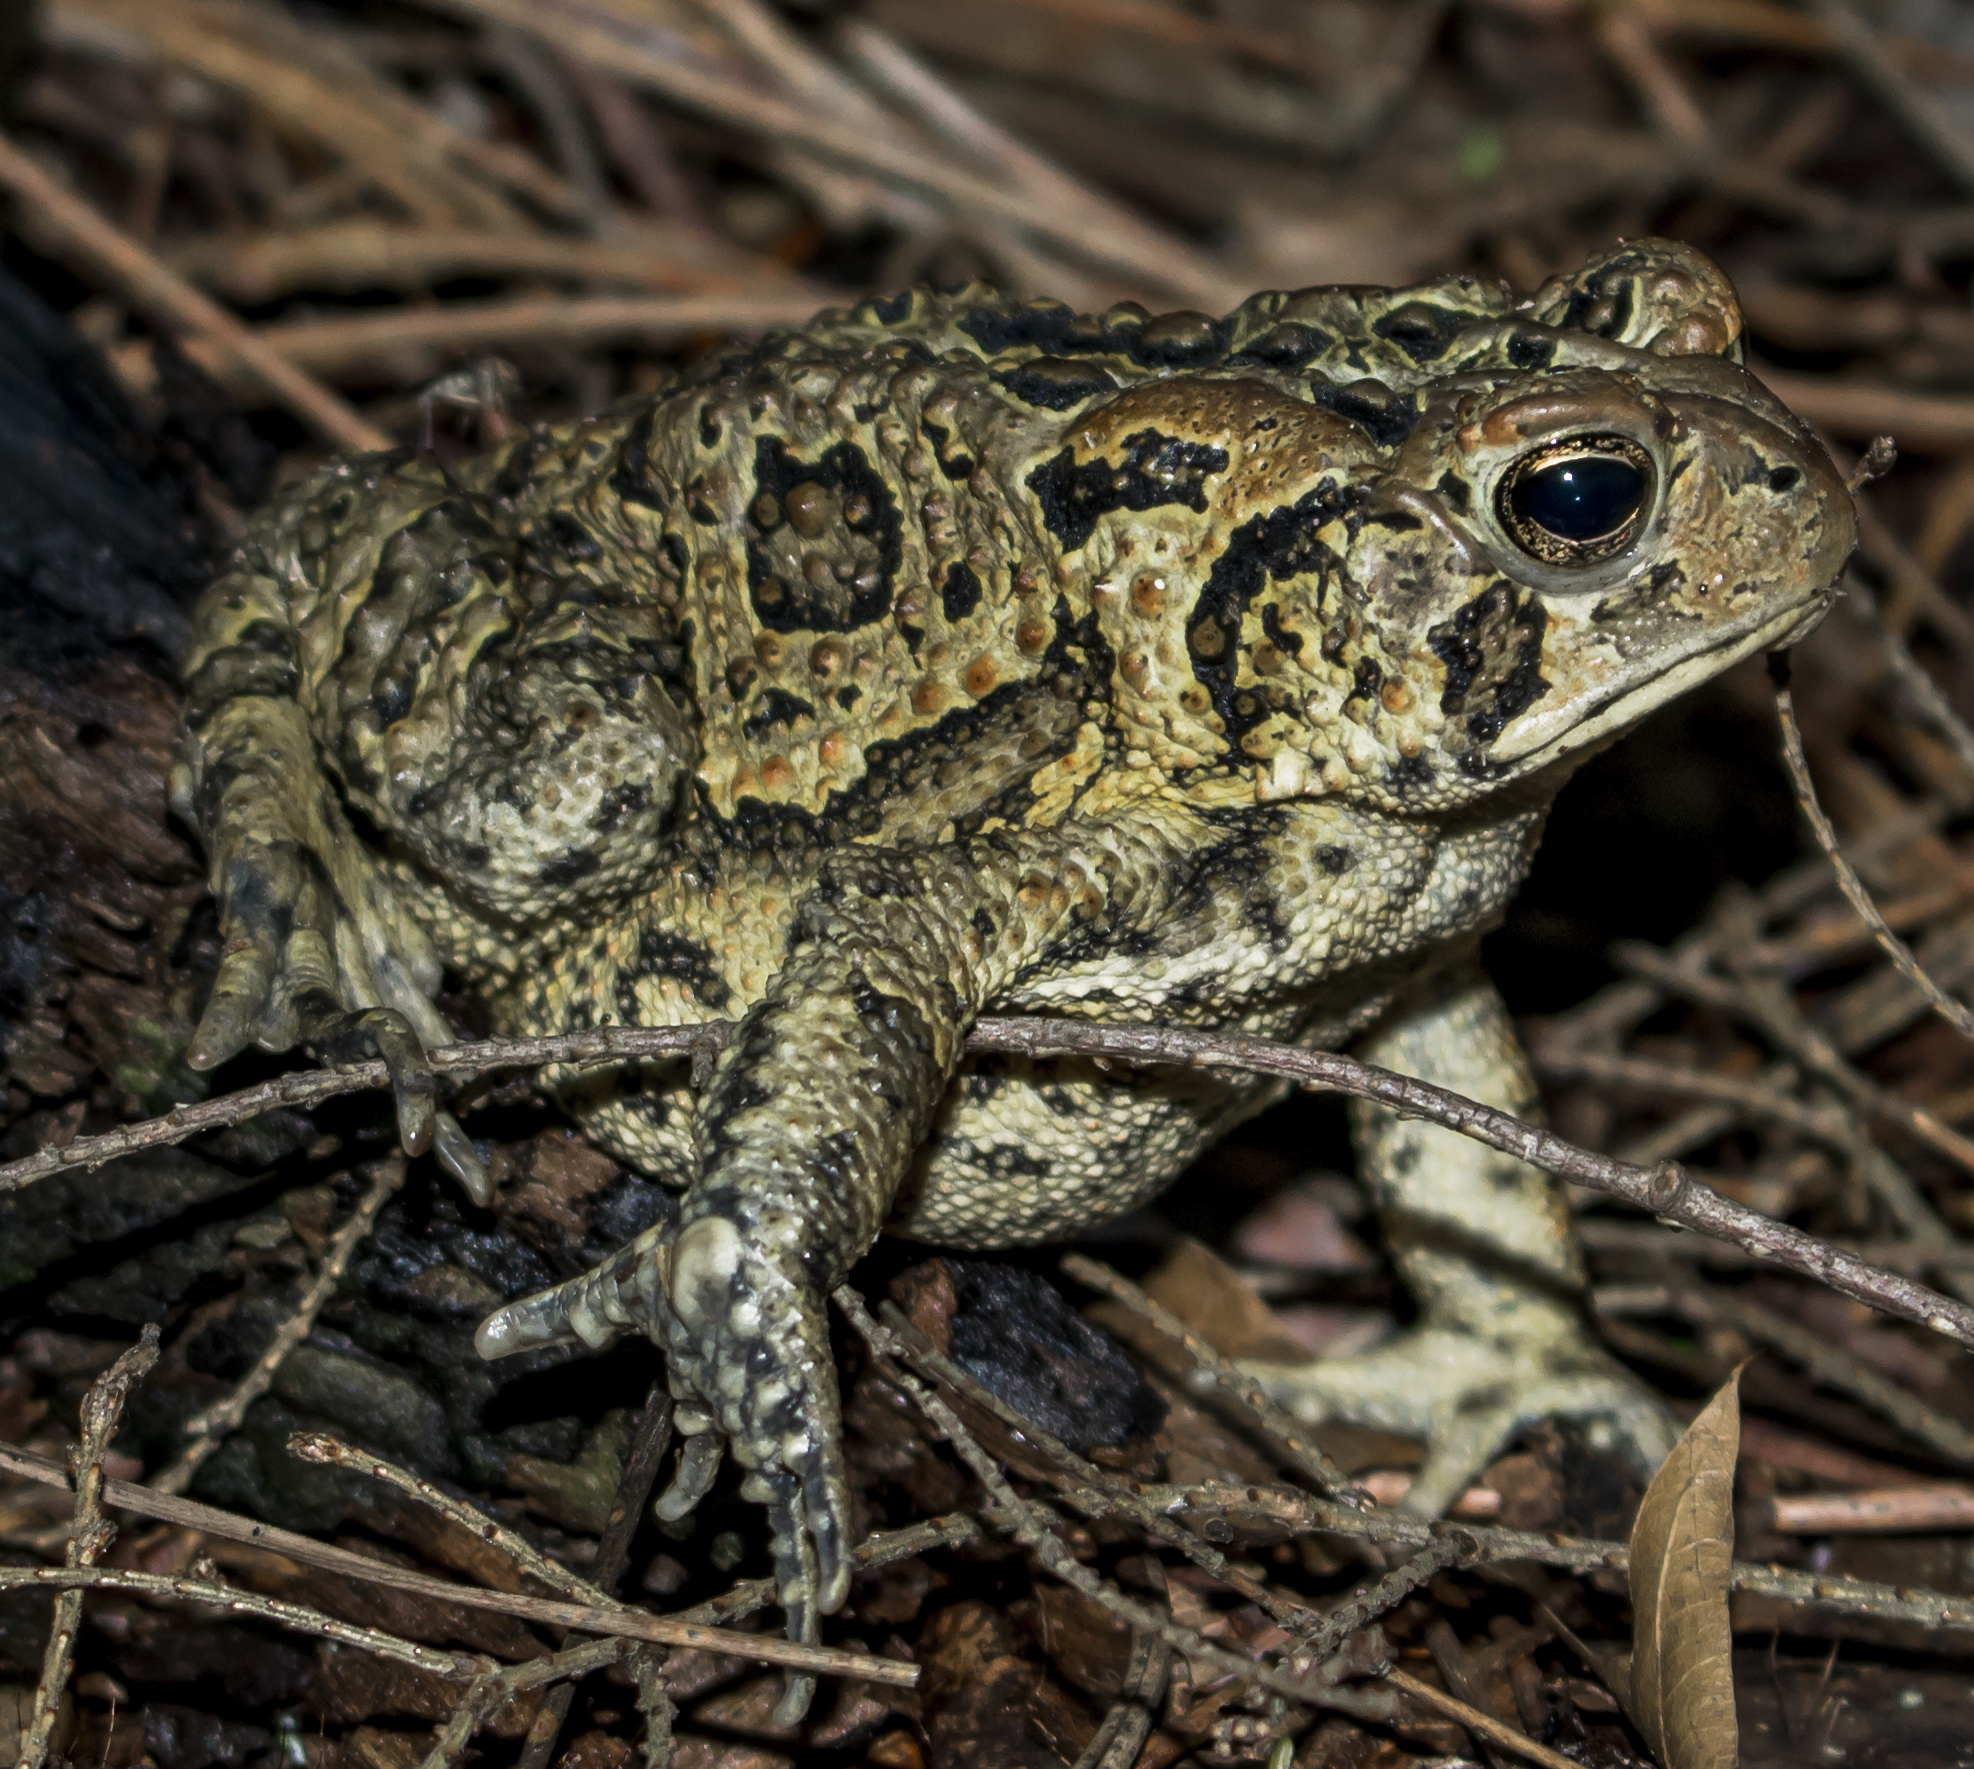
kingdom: Animalia
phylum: Chordata
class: Amphibia
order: Anura
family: Bufonidae
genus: Anaxyrus
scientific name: Anaxyrus americanus
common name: American toad
